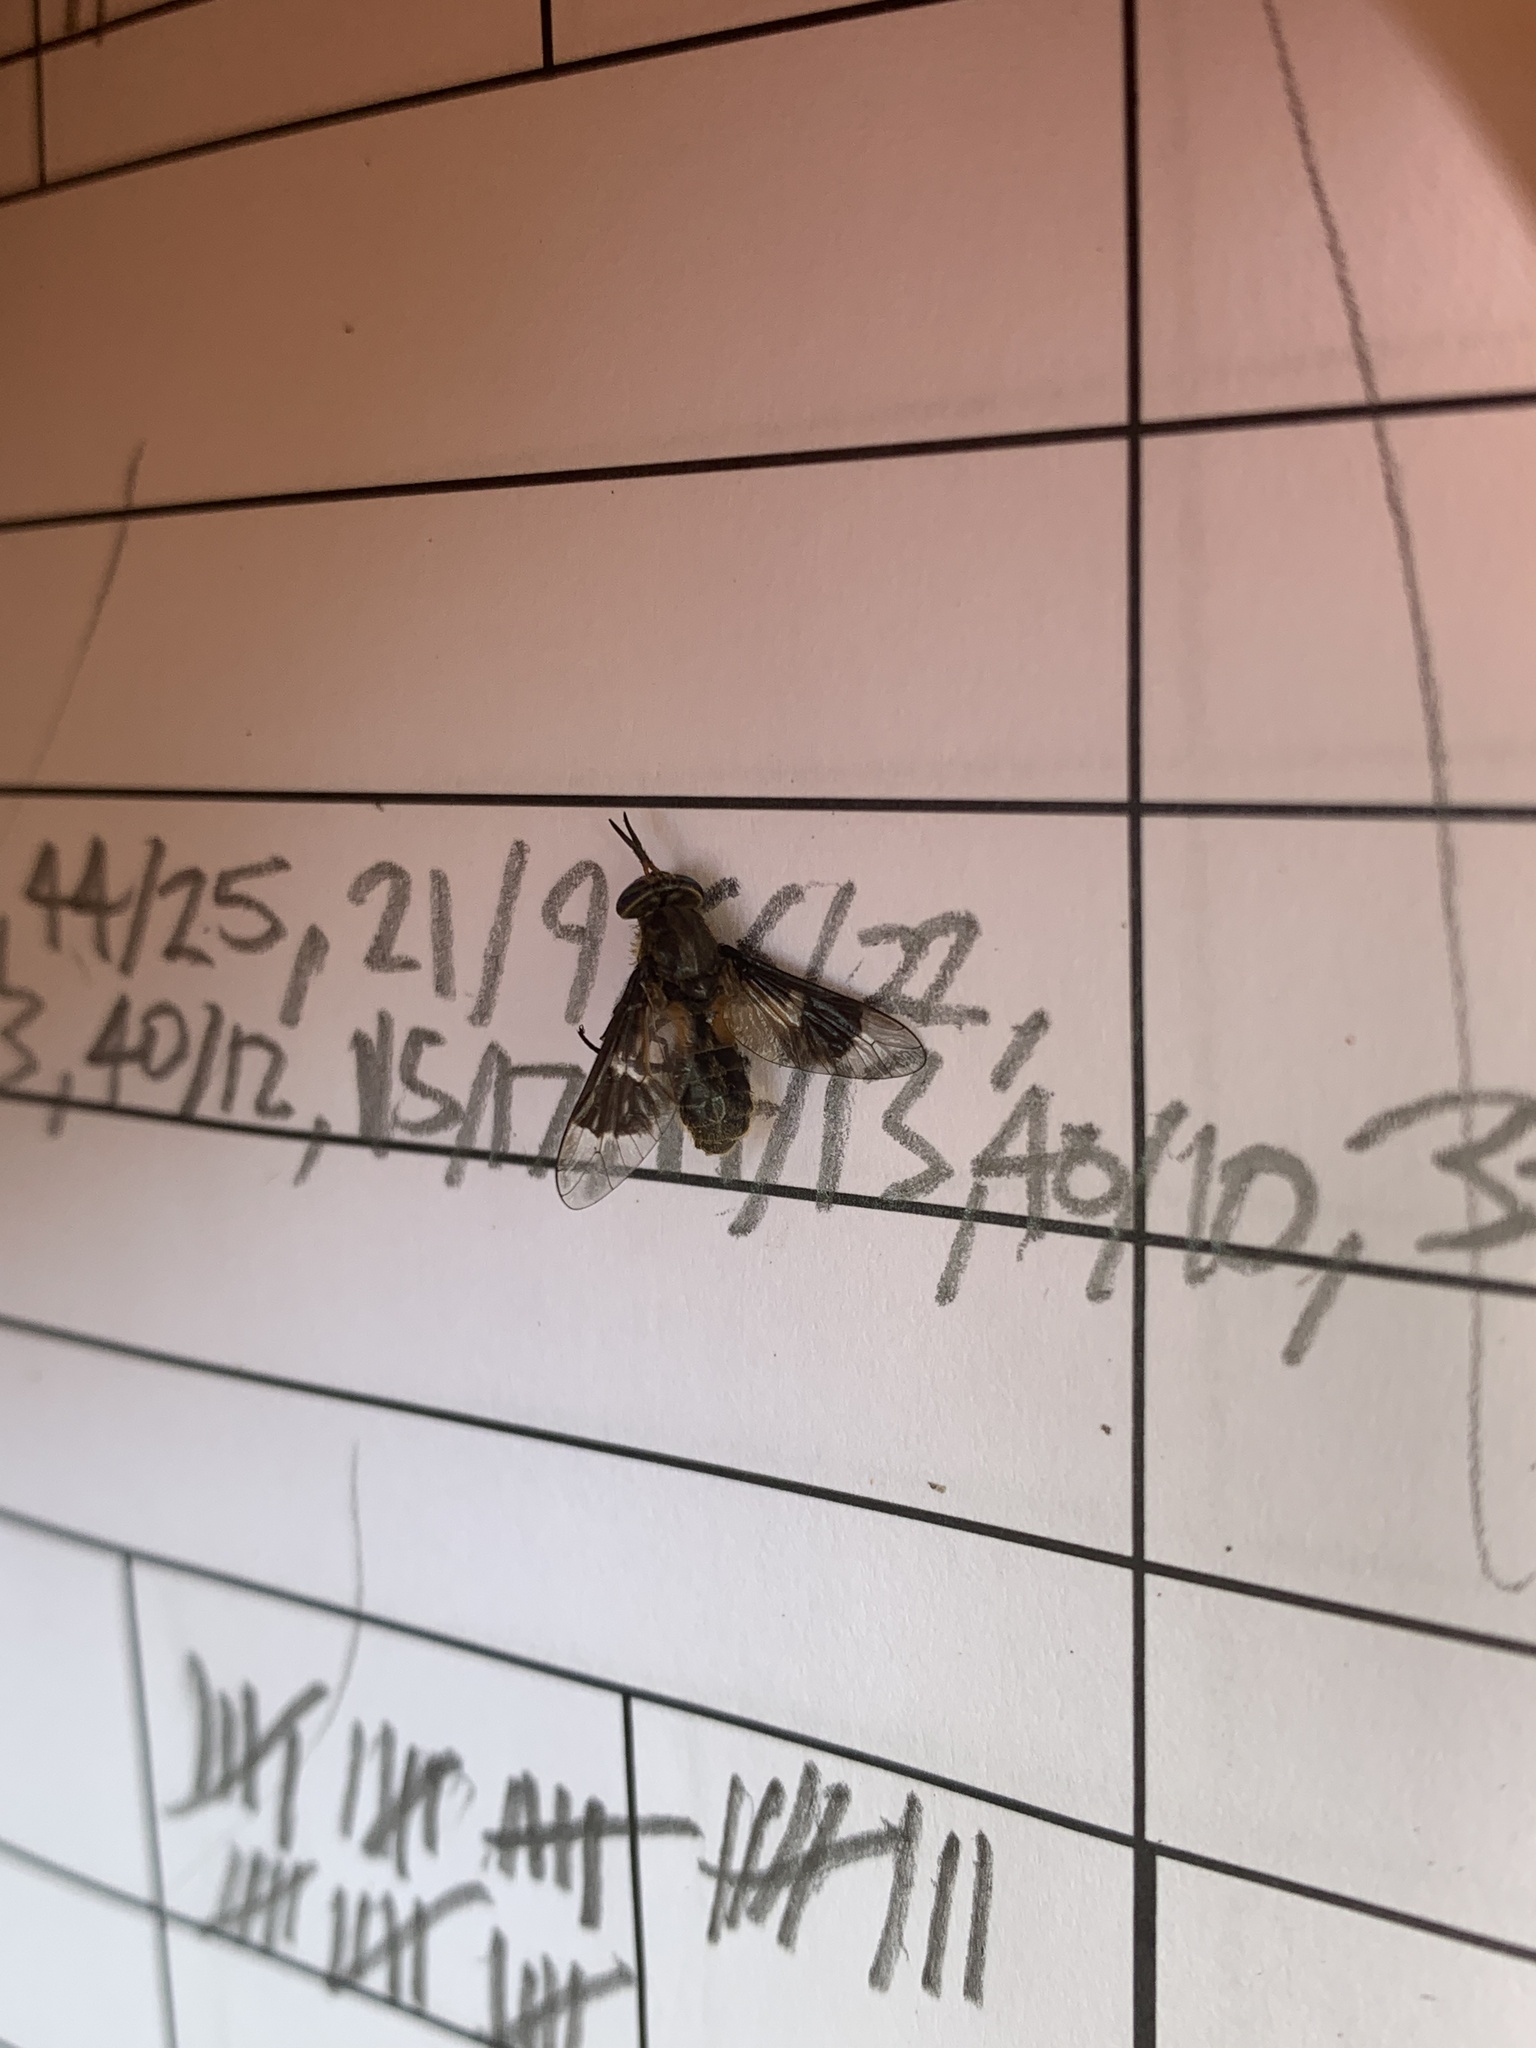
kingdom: Animalia
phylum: Arthropoda
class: Insecta
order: Diptera
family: Tabanidae
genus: Chrysops
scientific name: Chrysops excitans
